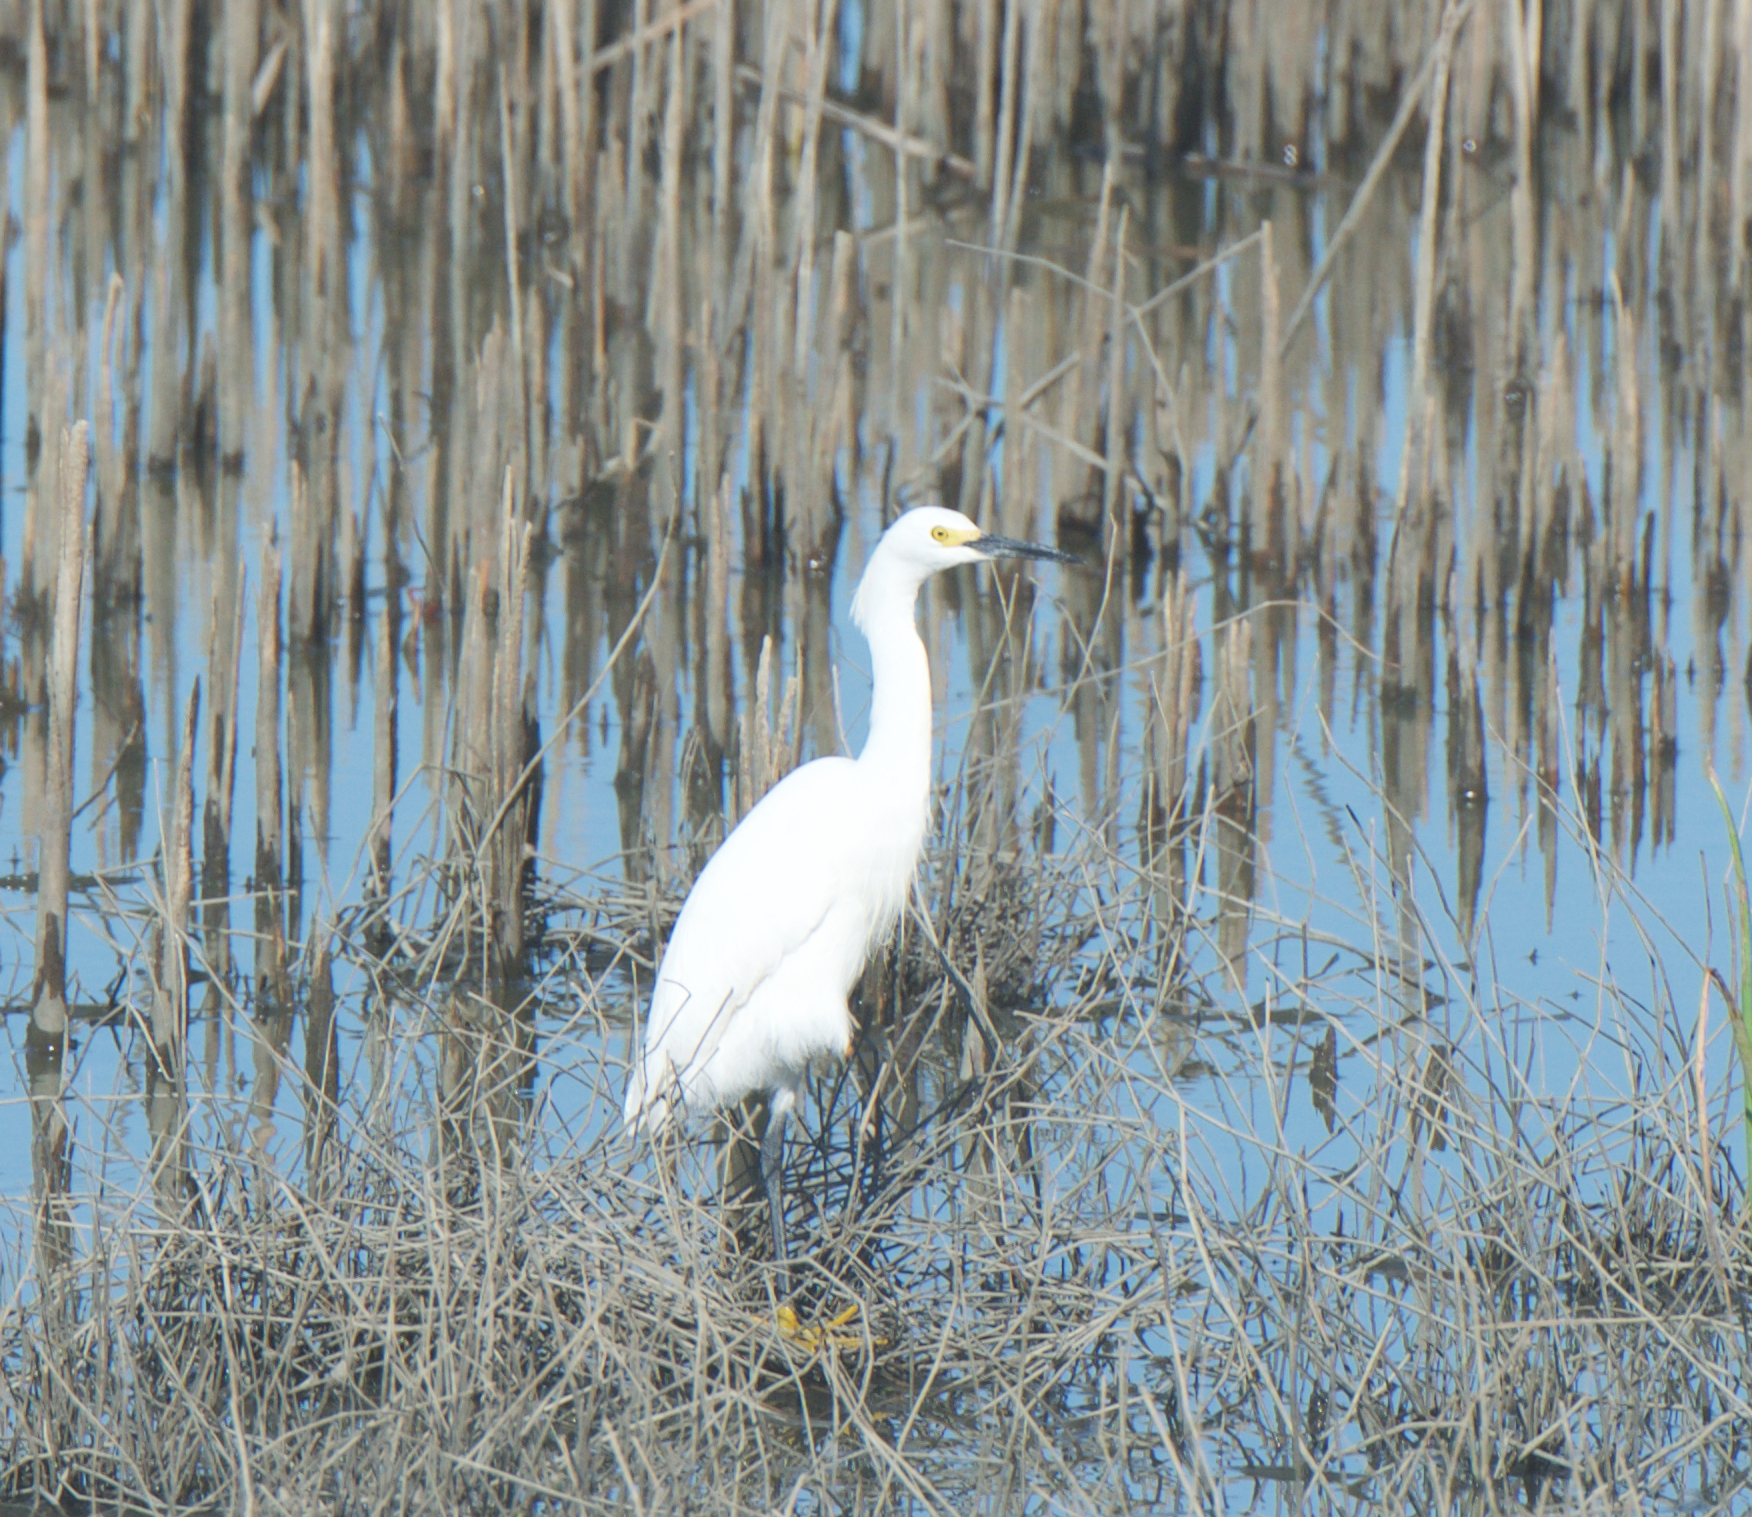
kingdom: Animalia
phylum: Chordata
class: Aves
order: Pelecaniformes
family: Ardeidae
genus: Egretta
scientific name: Egretta thula
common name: Snowy egret
